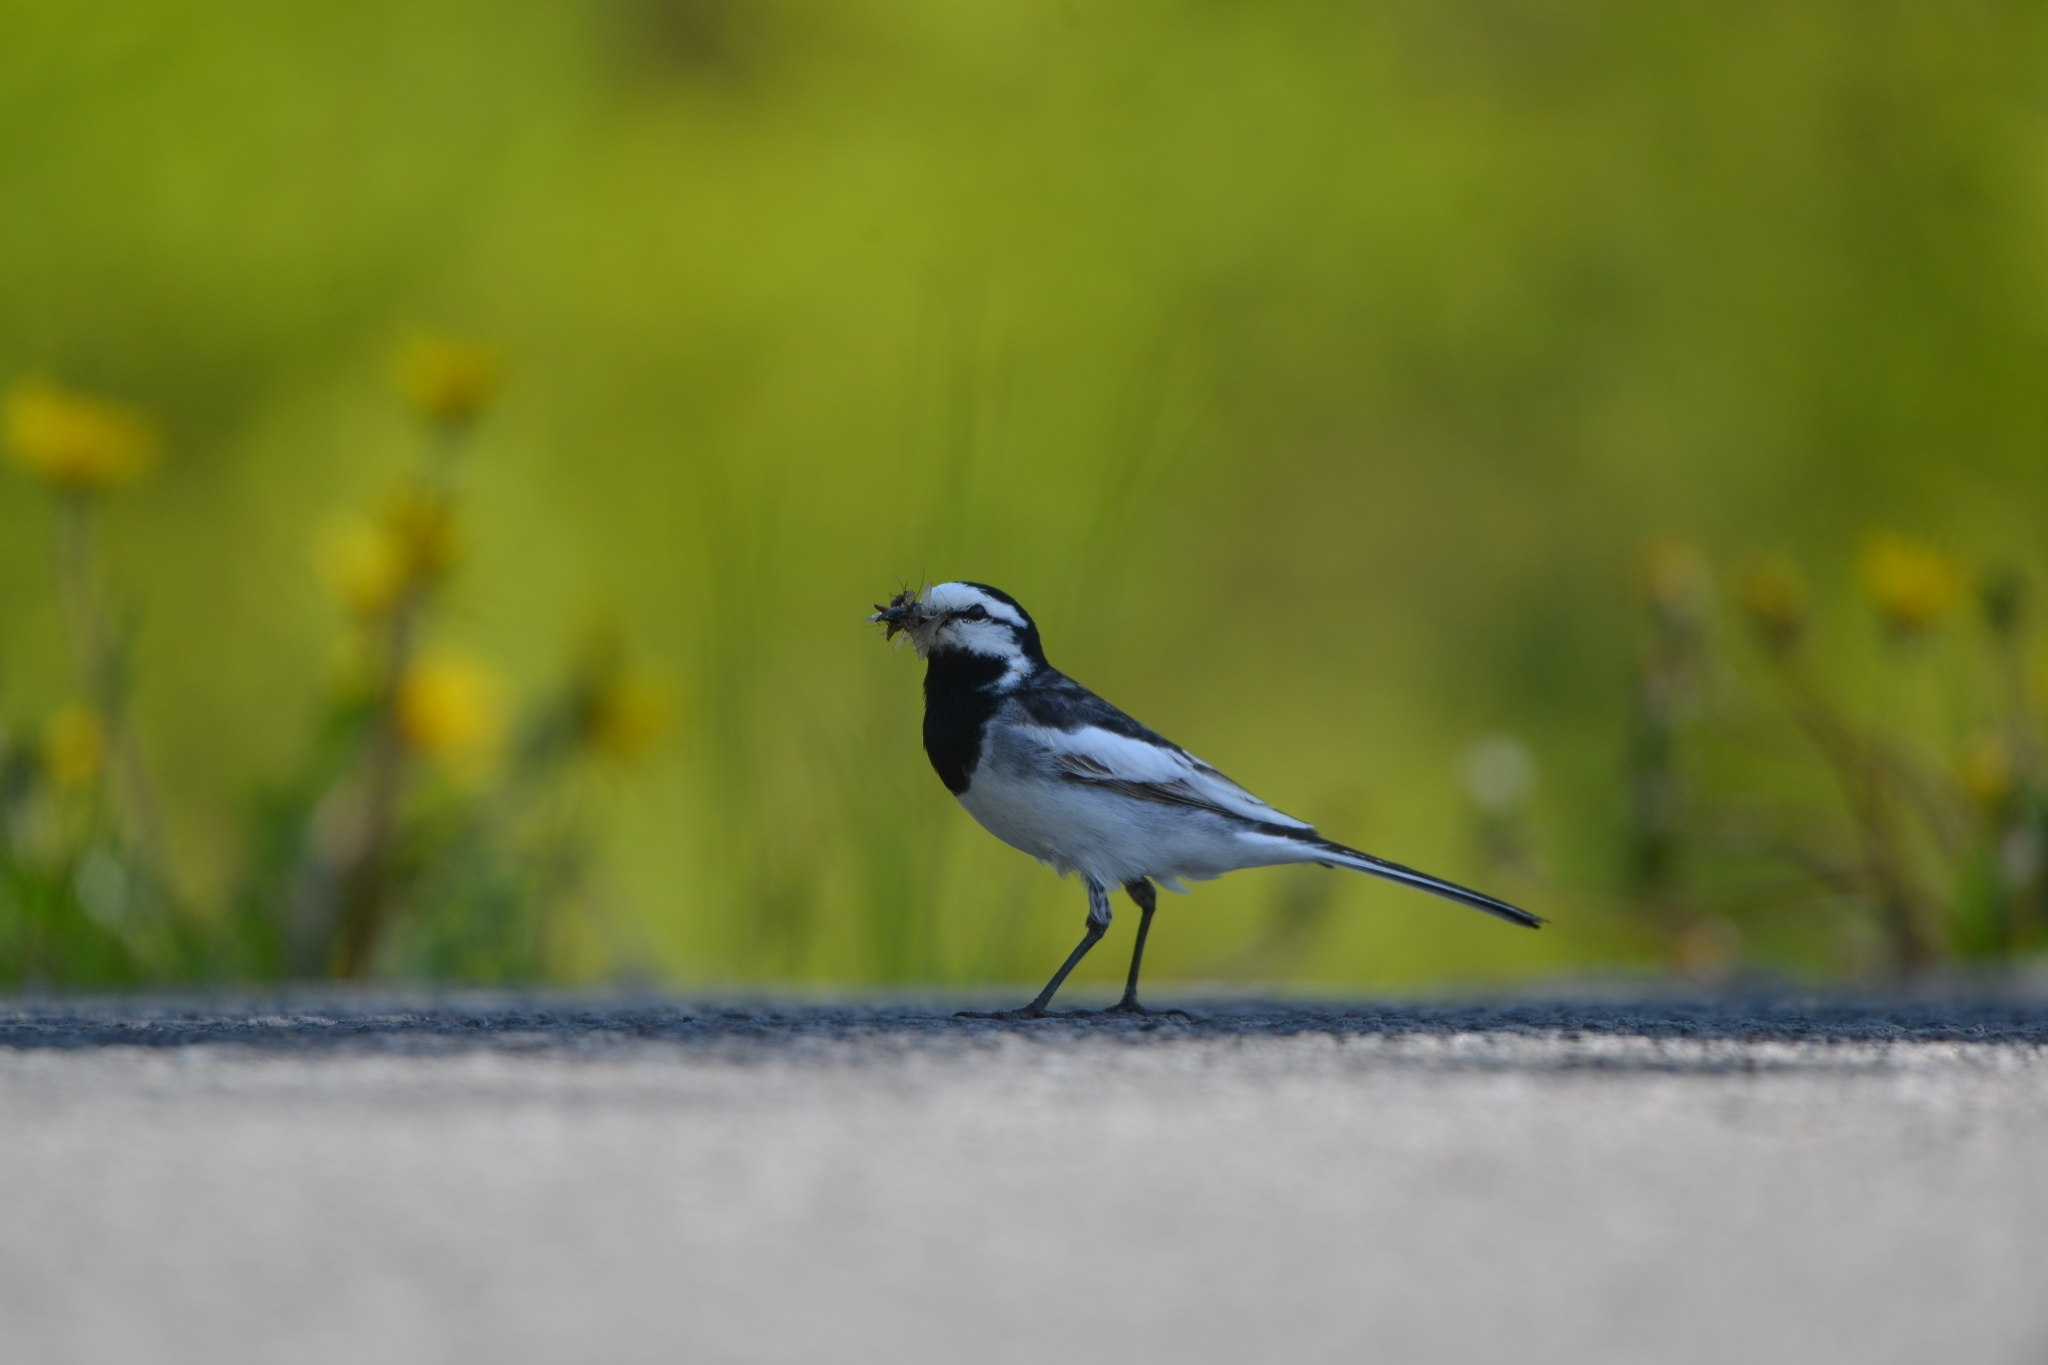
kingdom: Animalia
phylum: Chordata
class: Aves
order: Passeriformes
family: Motacillidae
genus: Motacilla
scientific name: Motacilla alba
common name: White wagtail
